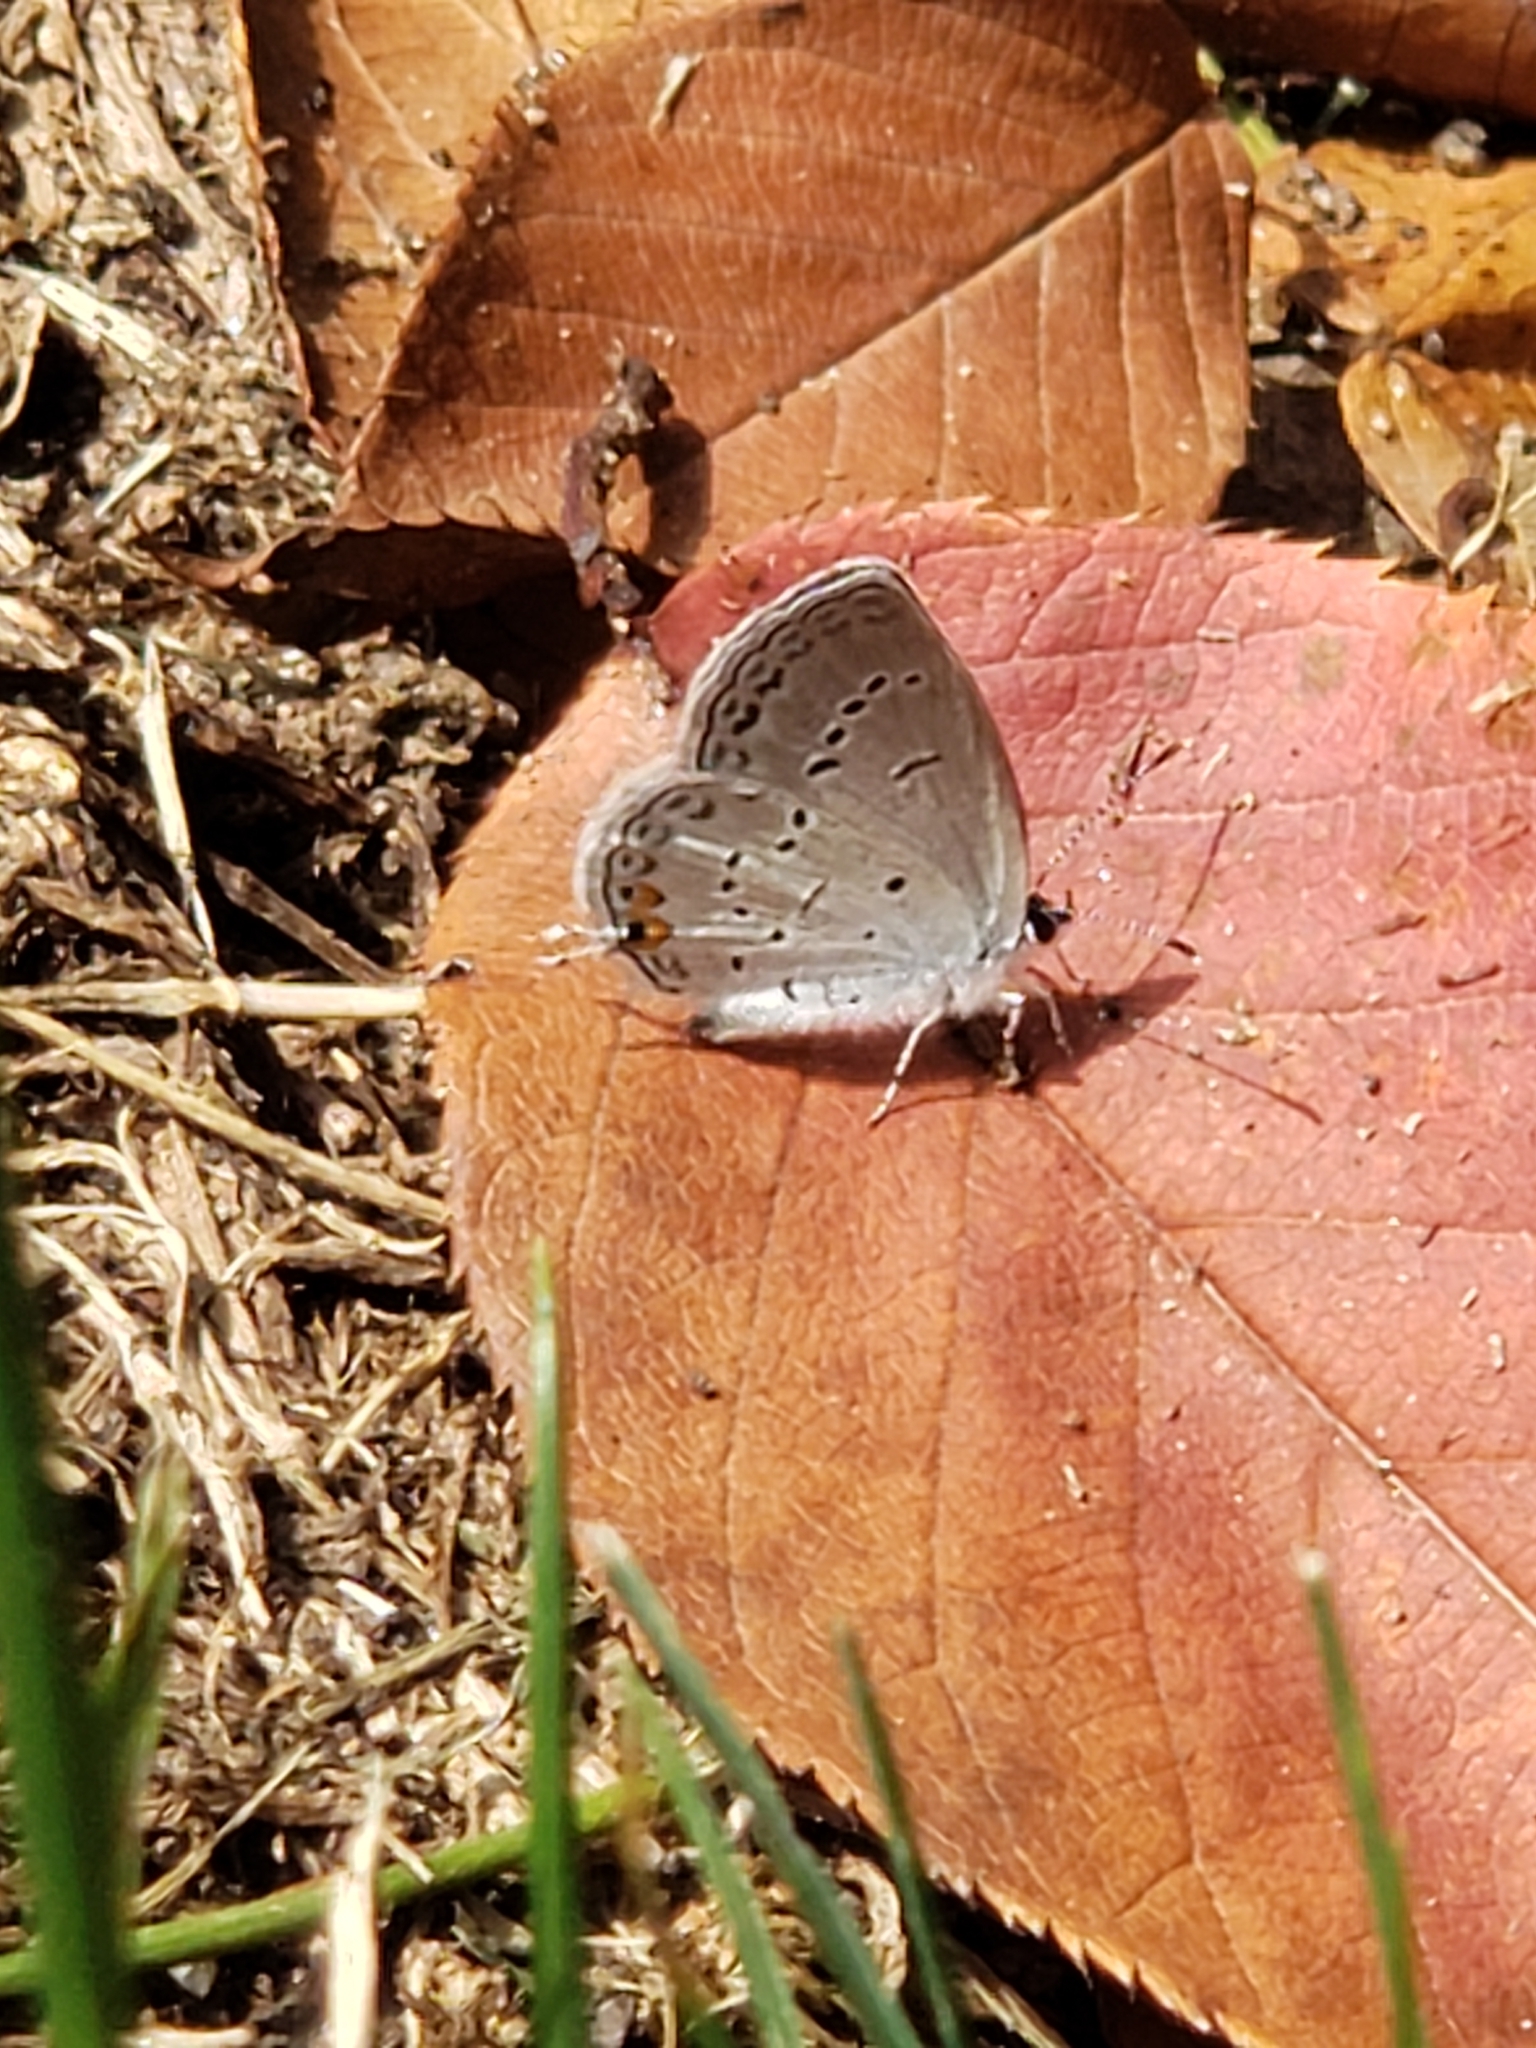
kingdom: Animalia
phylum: Arthropoda
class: Insecta
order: Lepidoptera
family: Lycaenidae
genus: Elkalyce
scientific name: Elkalyce comyntas
